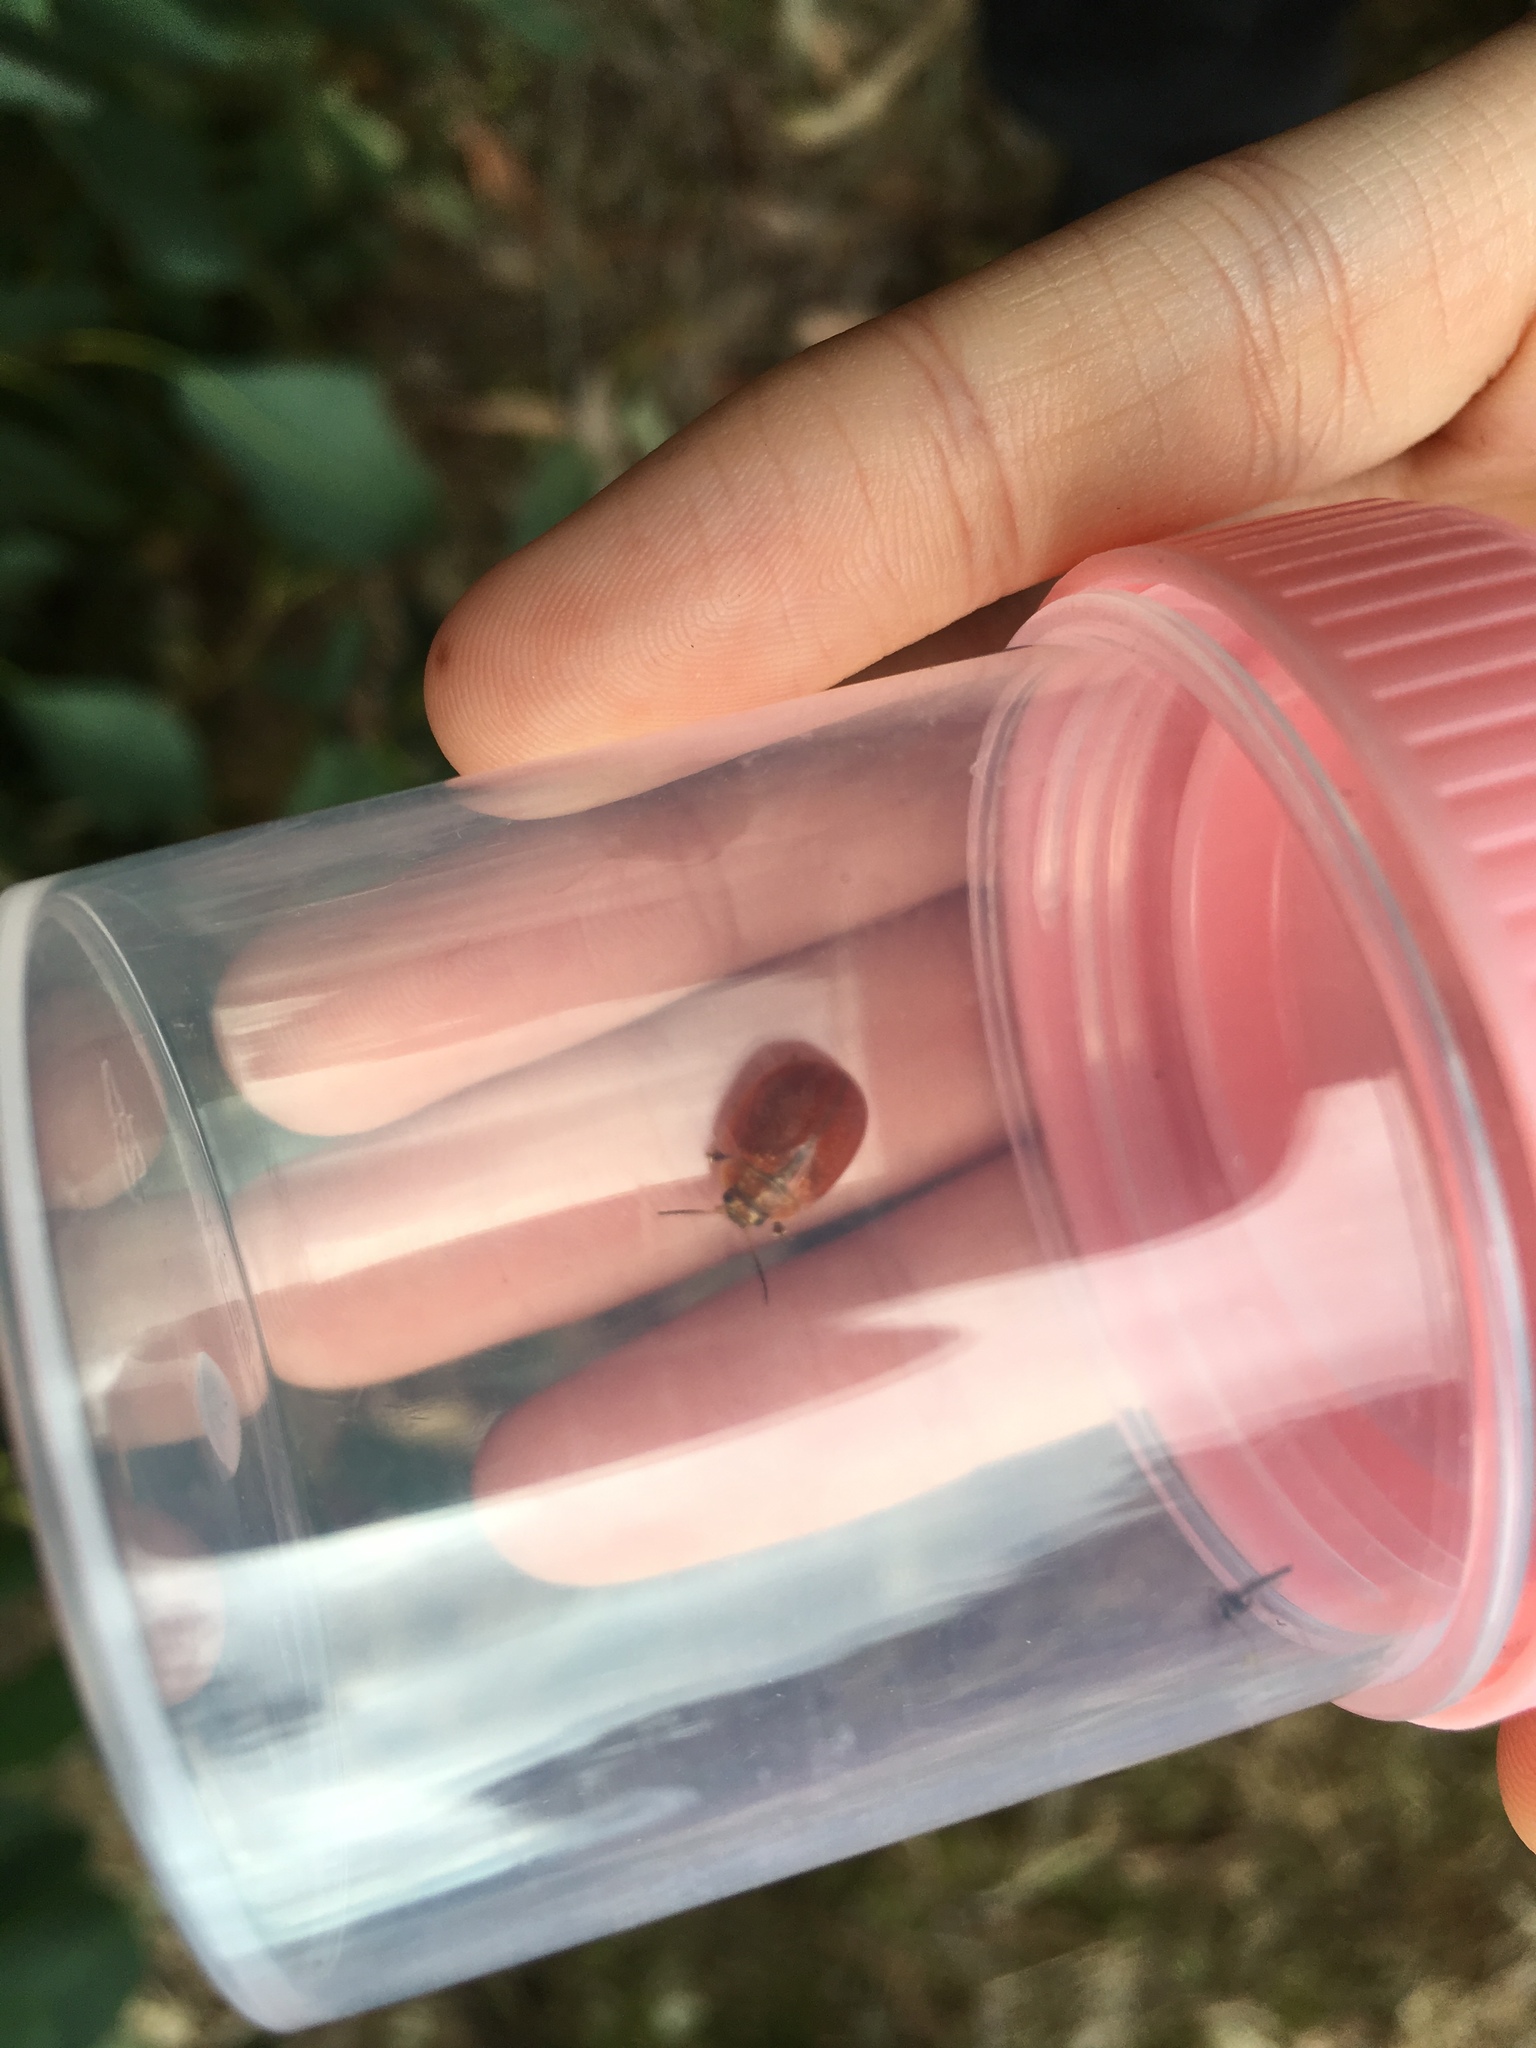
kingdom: Animalia
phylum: Arthropoda
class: Insecta
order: Coleoptera
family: Chrysomelidae
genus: Paropsisterna
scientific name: Paropsisterna cloelia
